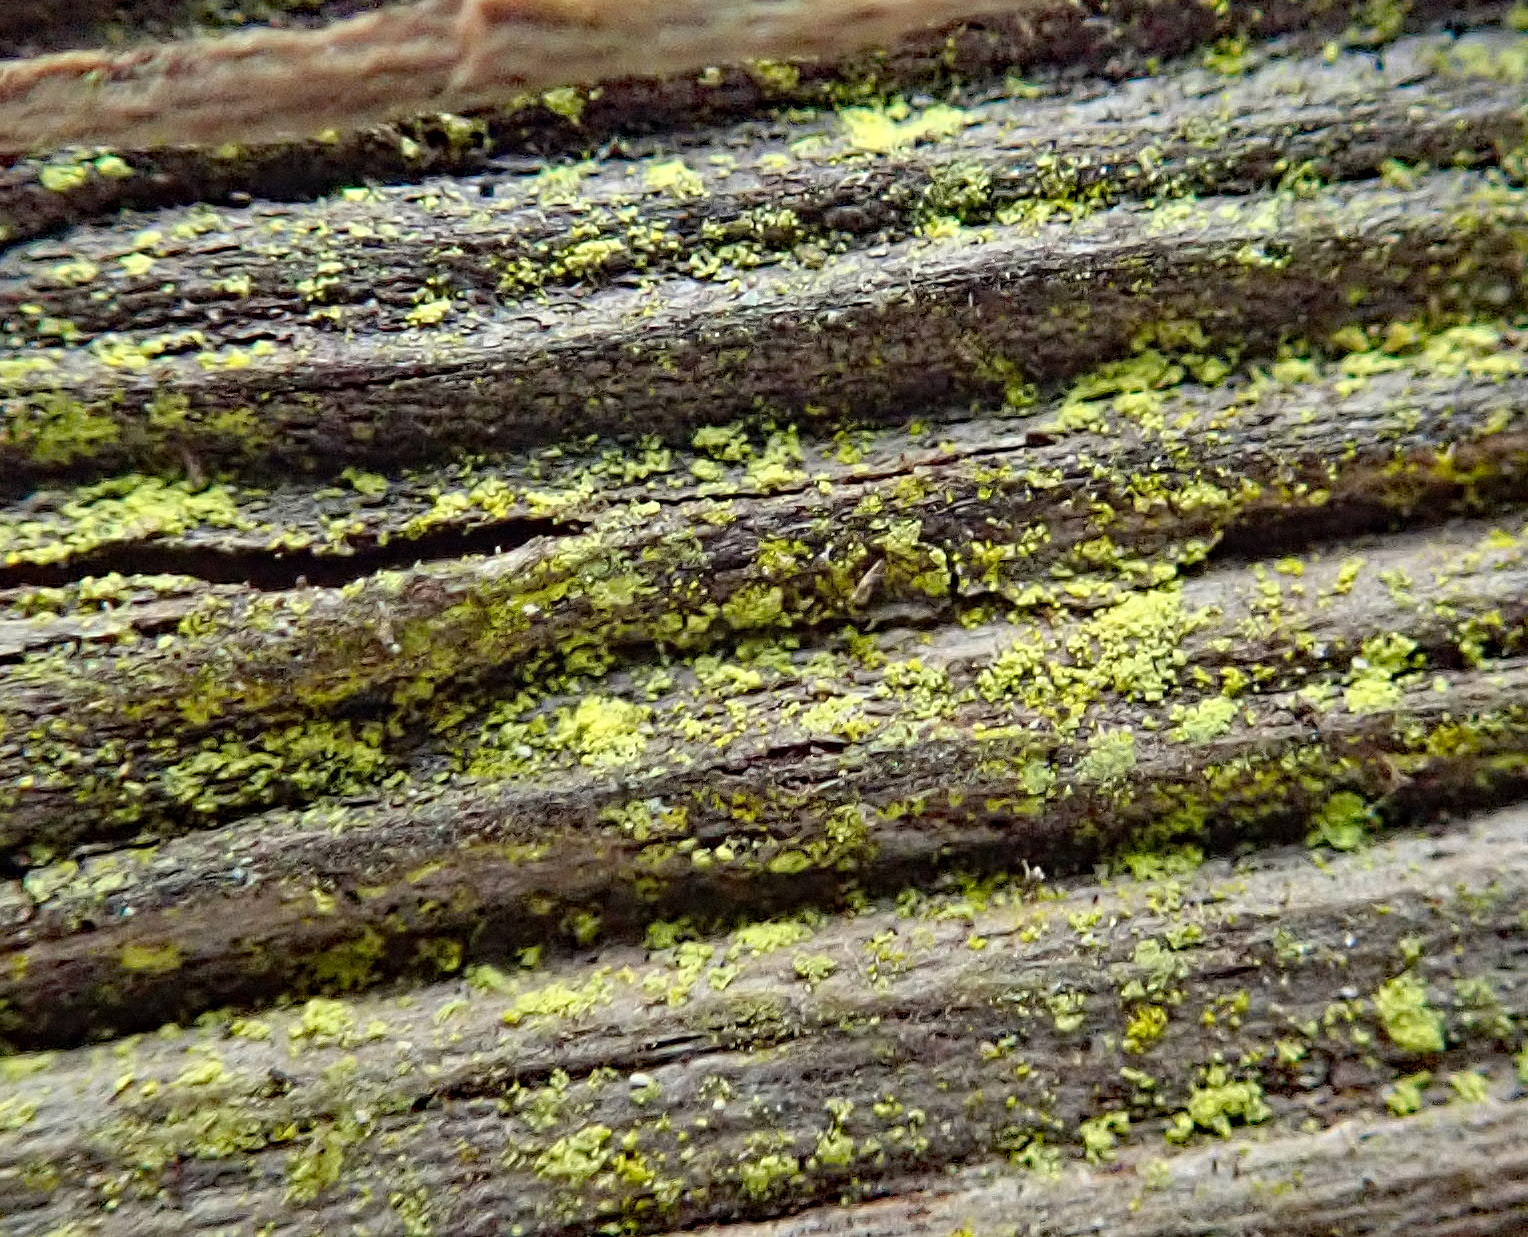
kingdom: Fungi
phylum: Ascomycota
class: Arthoniomycetes
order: Arthoniales
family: Chrysotrichaceae
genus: Chrysothrix
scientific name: Chrysothrix xanthina
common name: Common gold-dust
